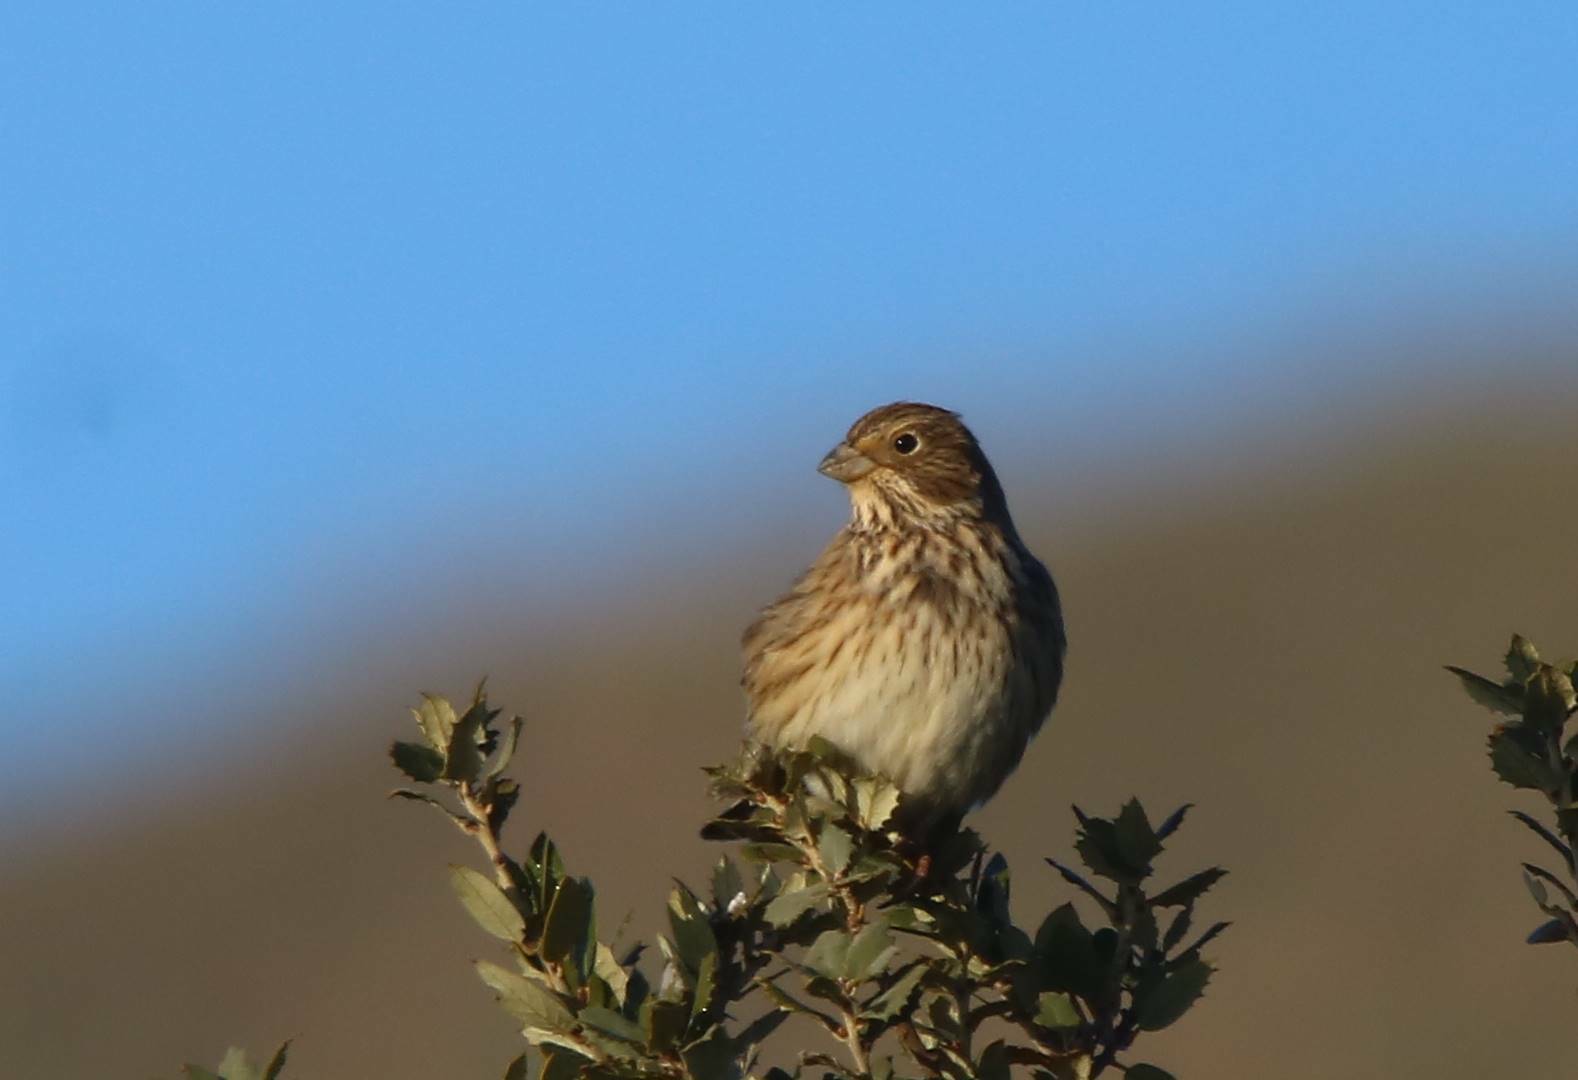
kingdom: Animalia
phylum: Chordata
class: Aves
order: Passeriformes
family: Emberizidae
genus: Emberiza
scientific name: Emberiza calandra
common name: Corn bunting
